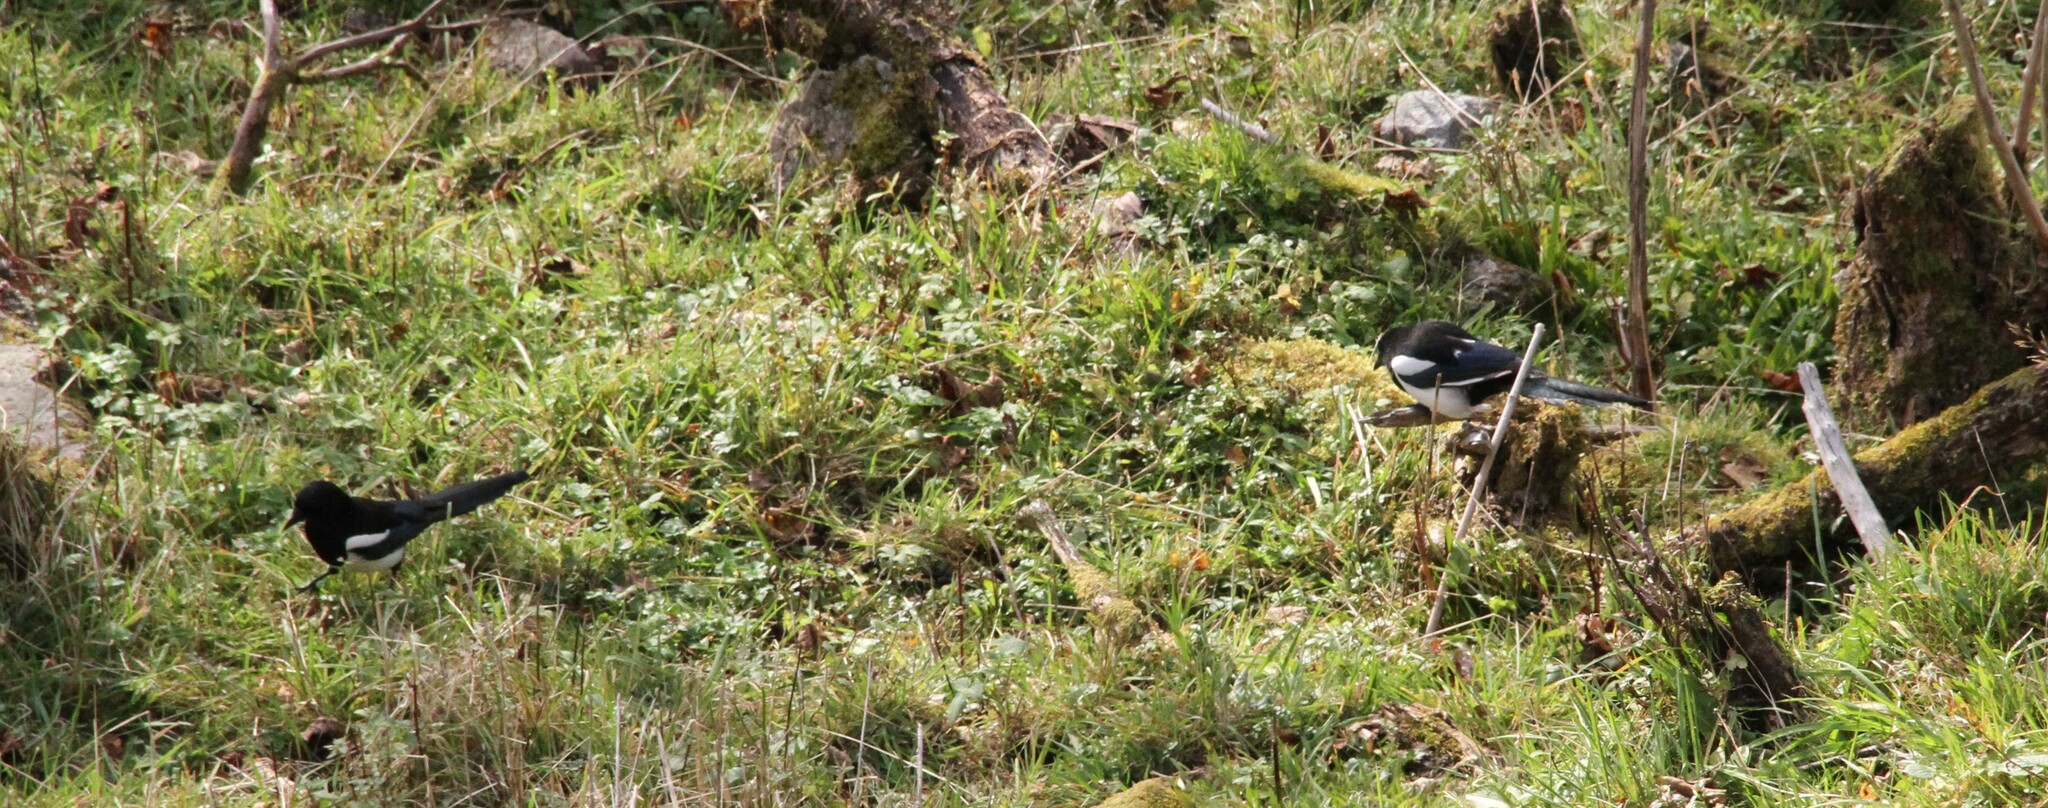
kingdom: Animalia
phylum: Chordata
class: Aves
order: Passeriformes
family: Corvidae
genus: Pica
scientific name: Pica pica
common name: Eurasian magpie
